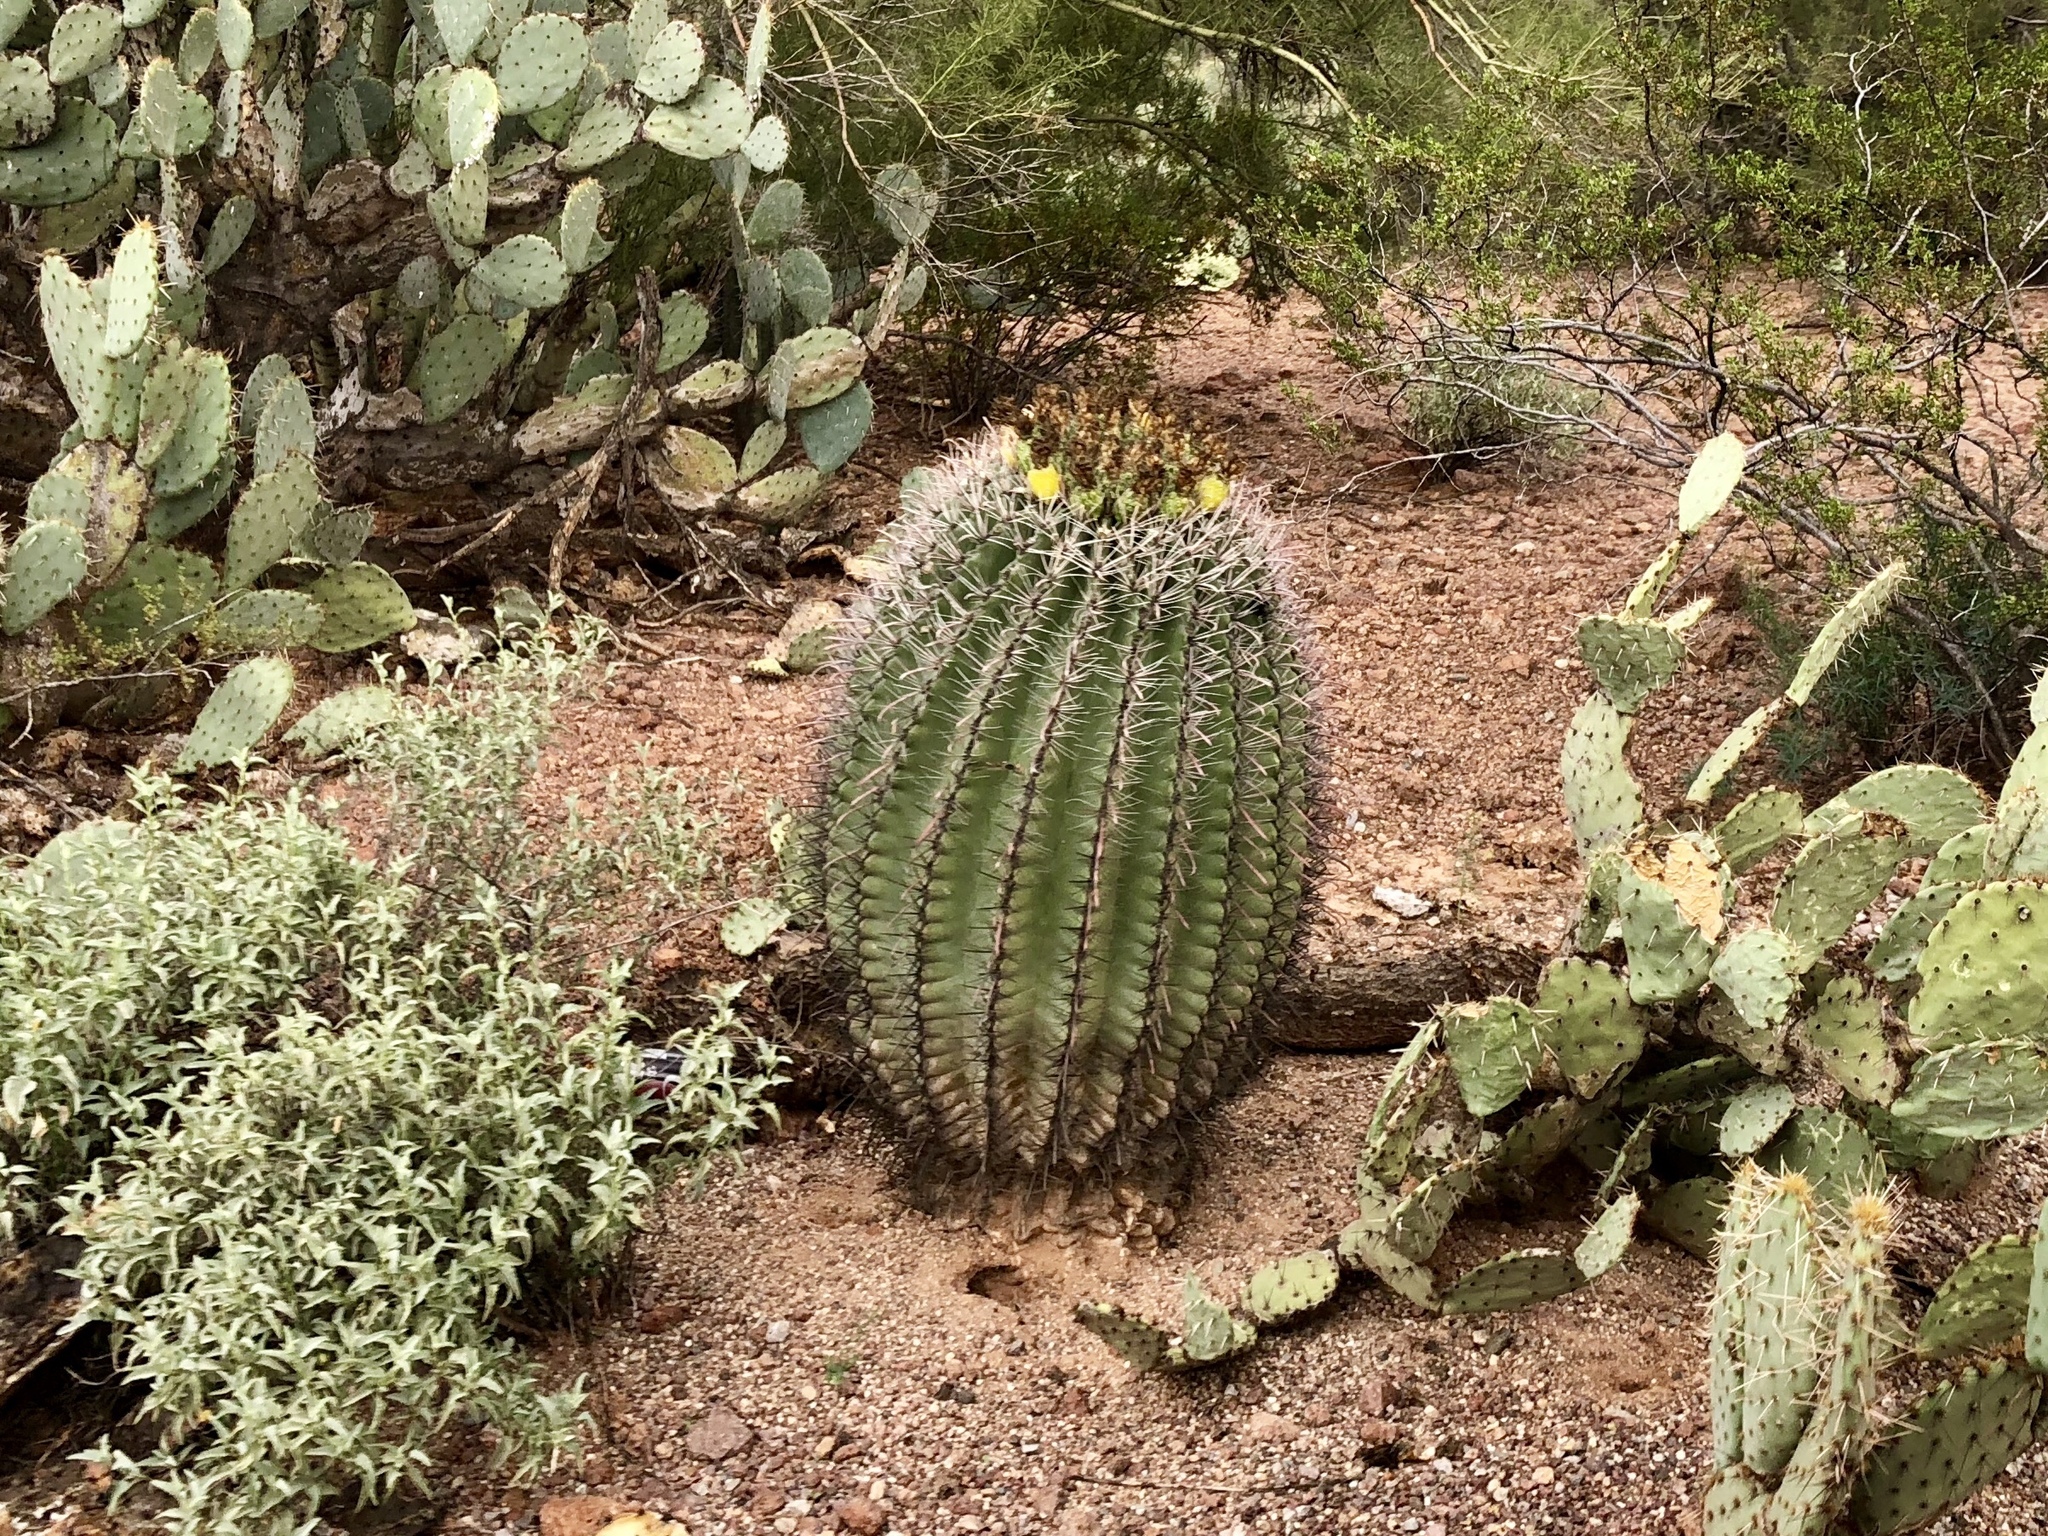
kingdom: Plantae
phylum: Tracheophyta
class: Magnoliopsida
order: Caryophyllales
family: Cactaceae
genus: Ferocactus
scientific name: Ferocactus wislizeni
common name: Candy barrel cactus
